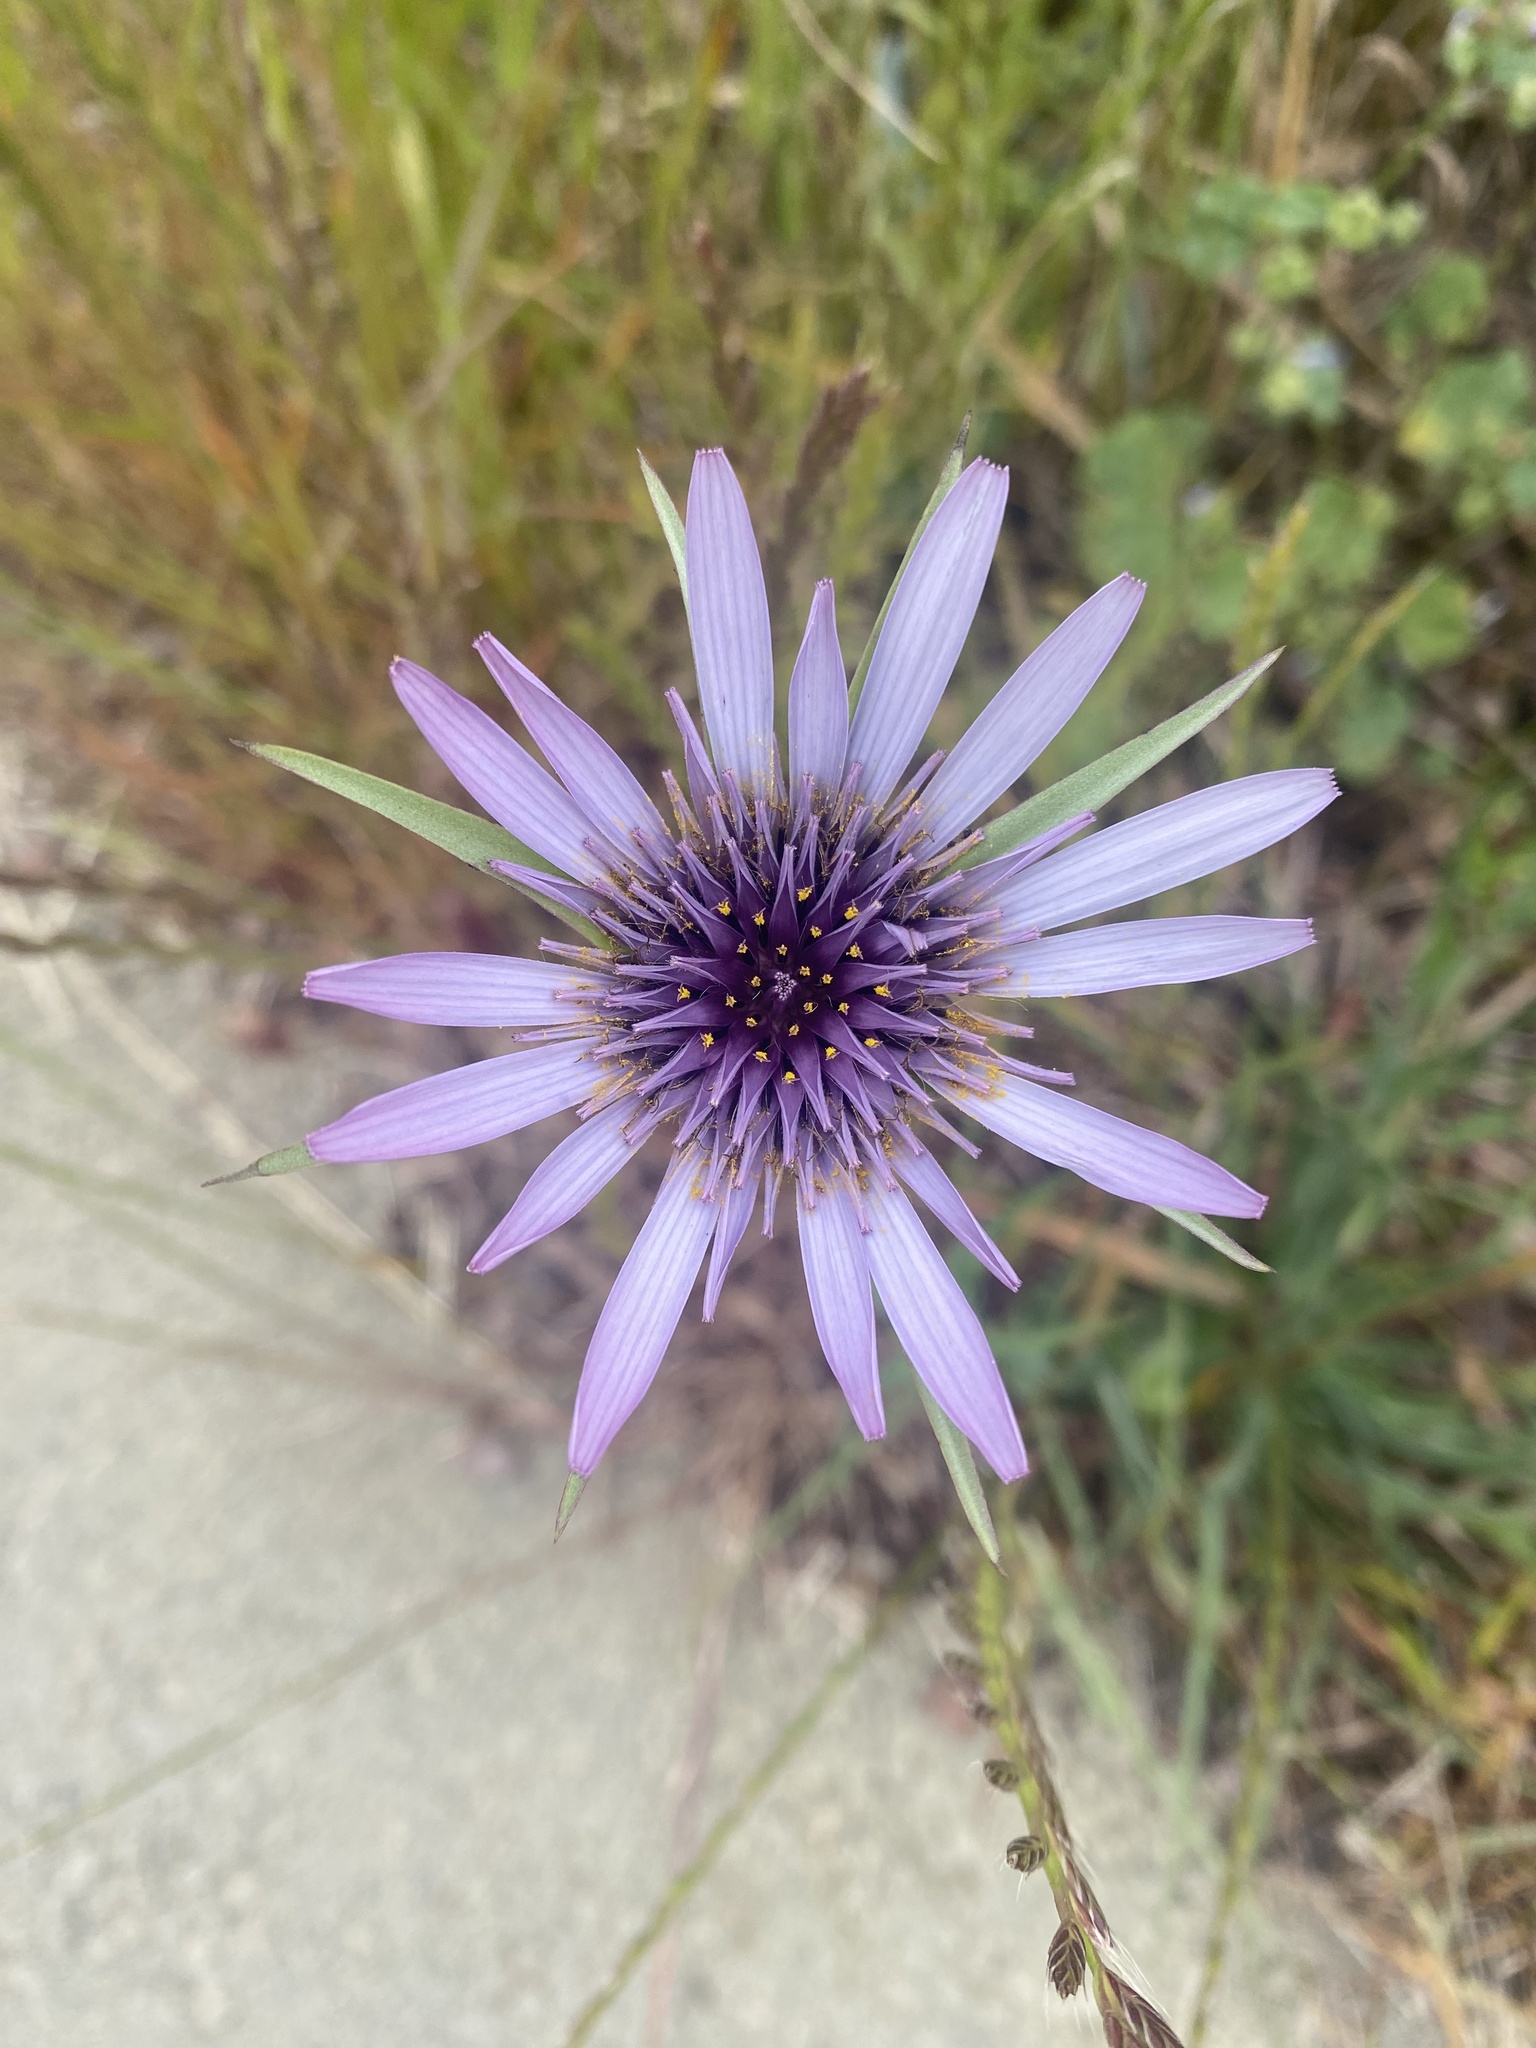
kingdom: Plantae
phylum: Tracheophyta
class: Magnoliopsida
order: Asterales
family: Asteraceae
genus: Tragopogon
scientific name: Tragopogon porrifolius
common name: Salsify
